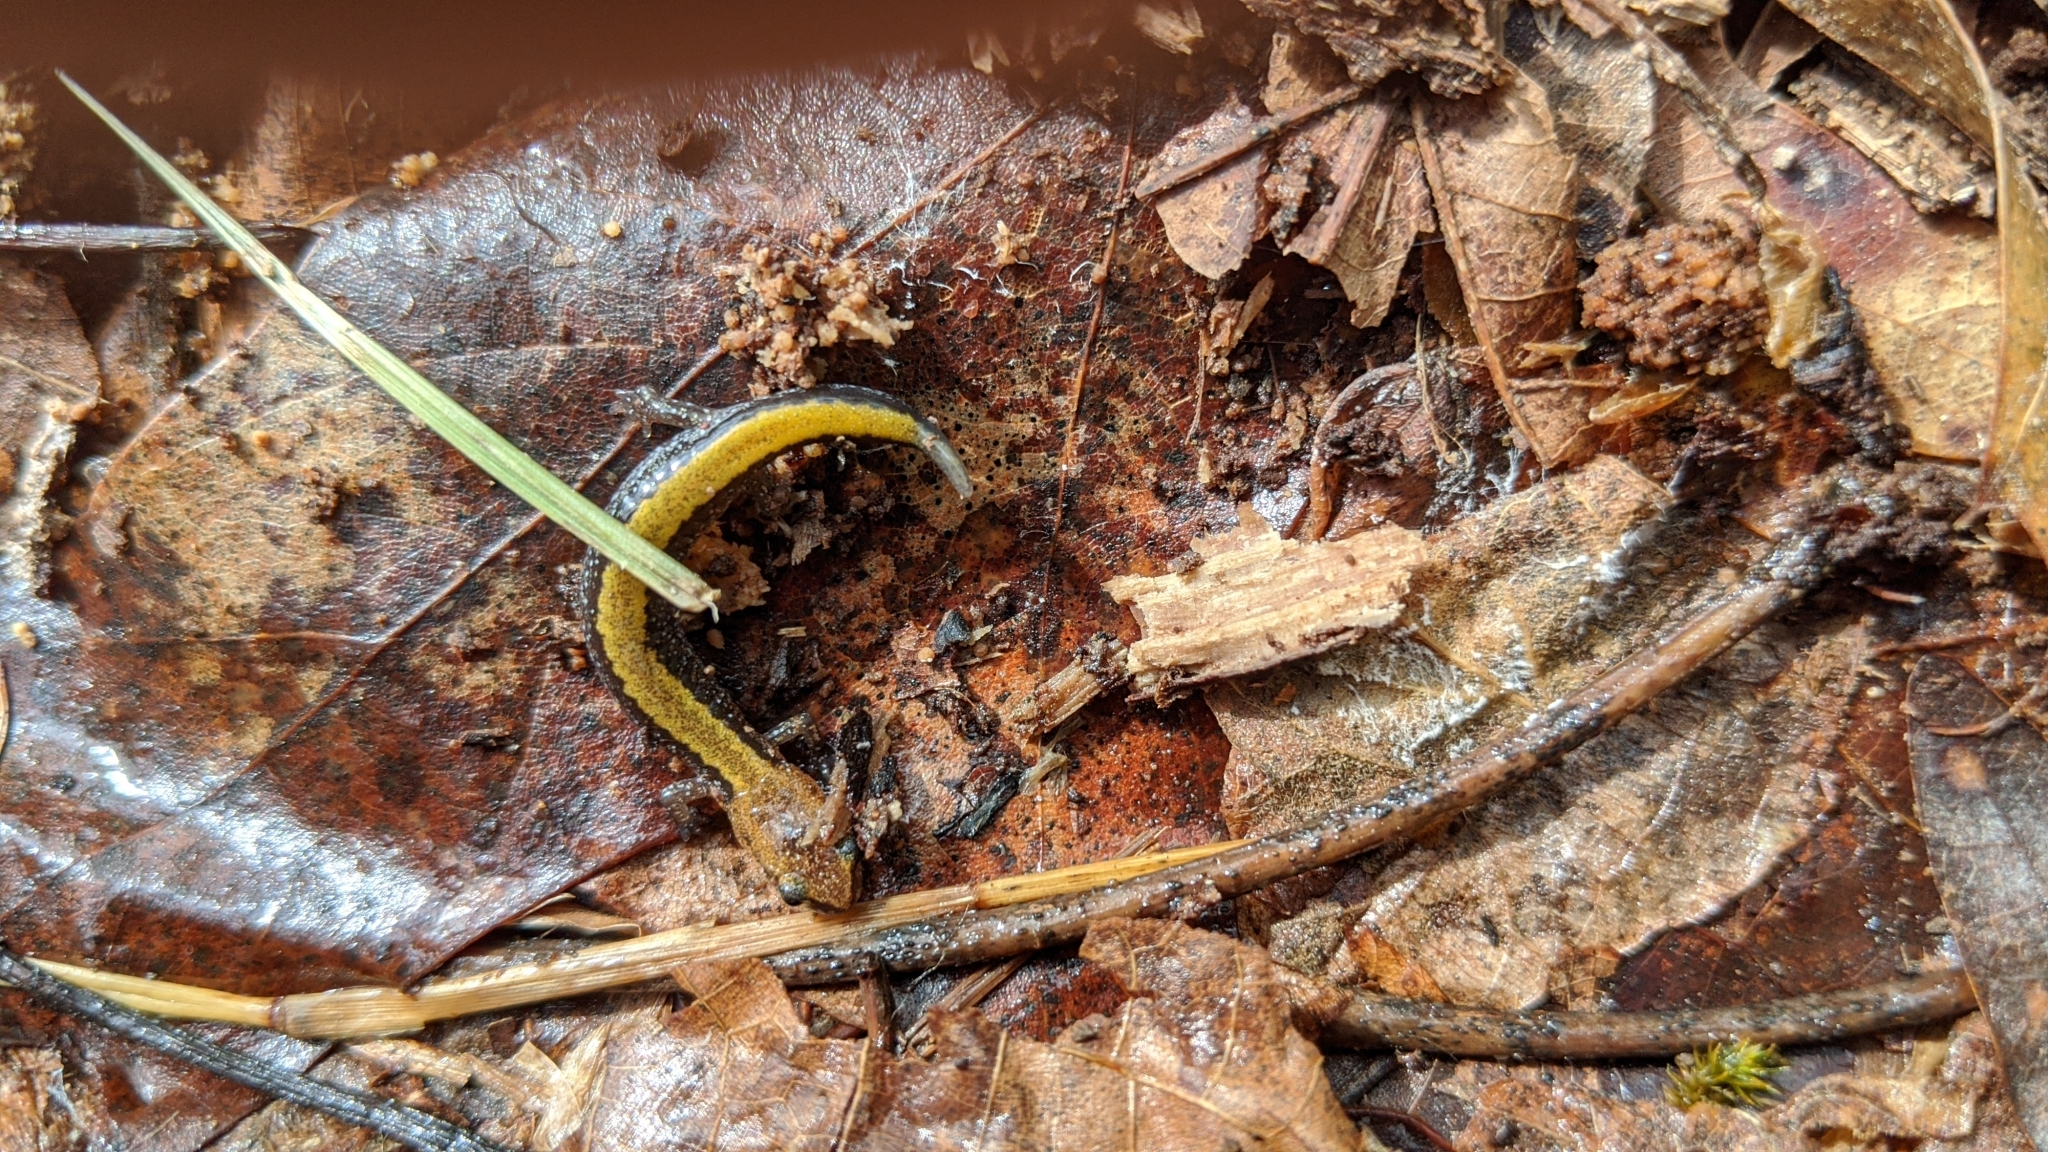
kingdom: Animalia
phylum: Chordata
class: Amphibia
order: Caudata
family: Plethodontidae
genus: Plethodon
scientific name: Plethodon cinereus
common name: Redback salamander
